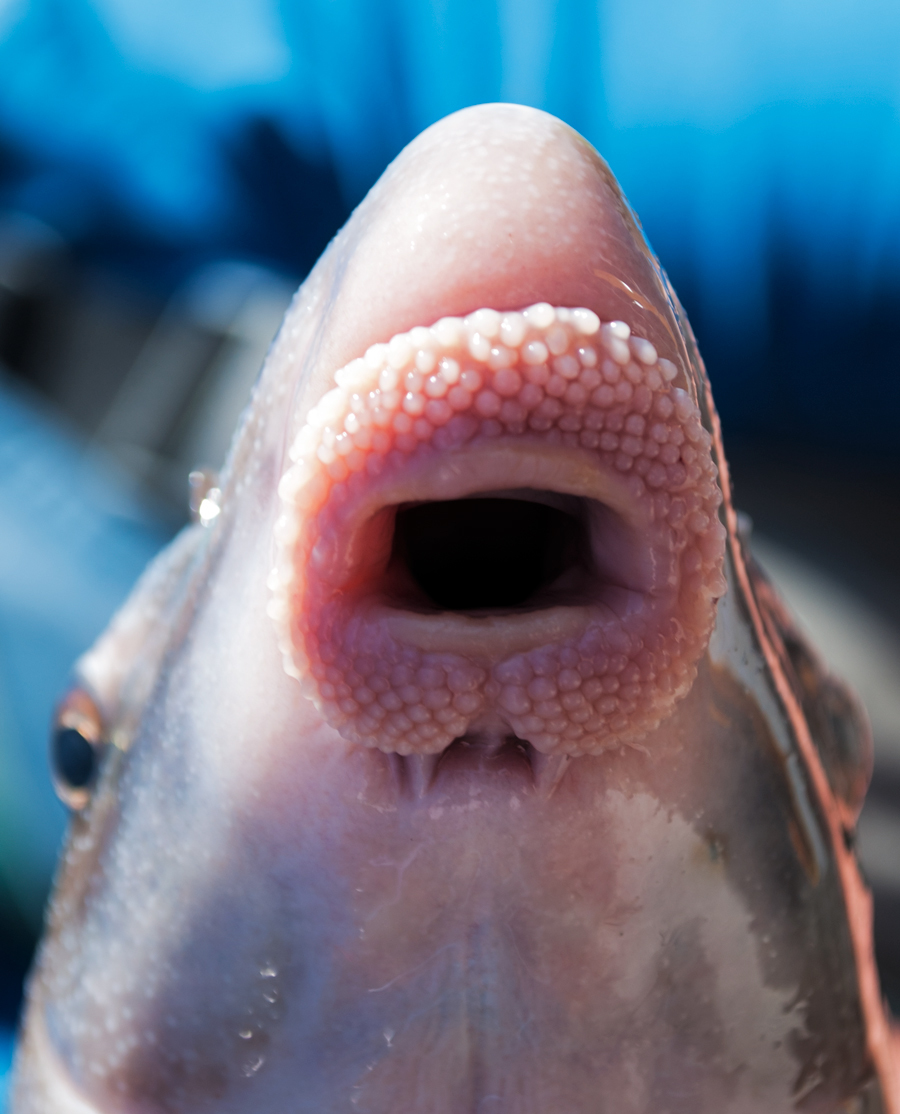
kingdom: Animalia
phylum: Chordata
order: Cypriniformes
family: Catostomidae
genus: Cycleptus
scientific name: Cycleptus elongatus
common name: Blue sucker
